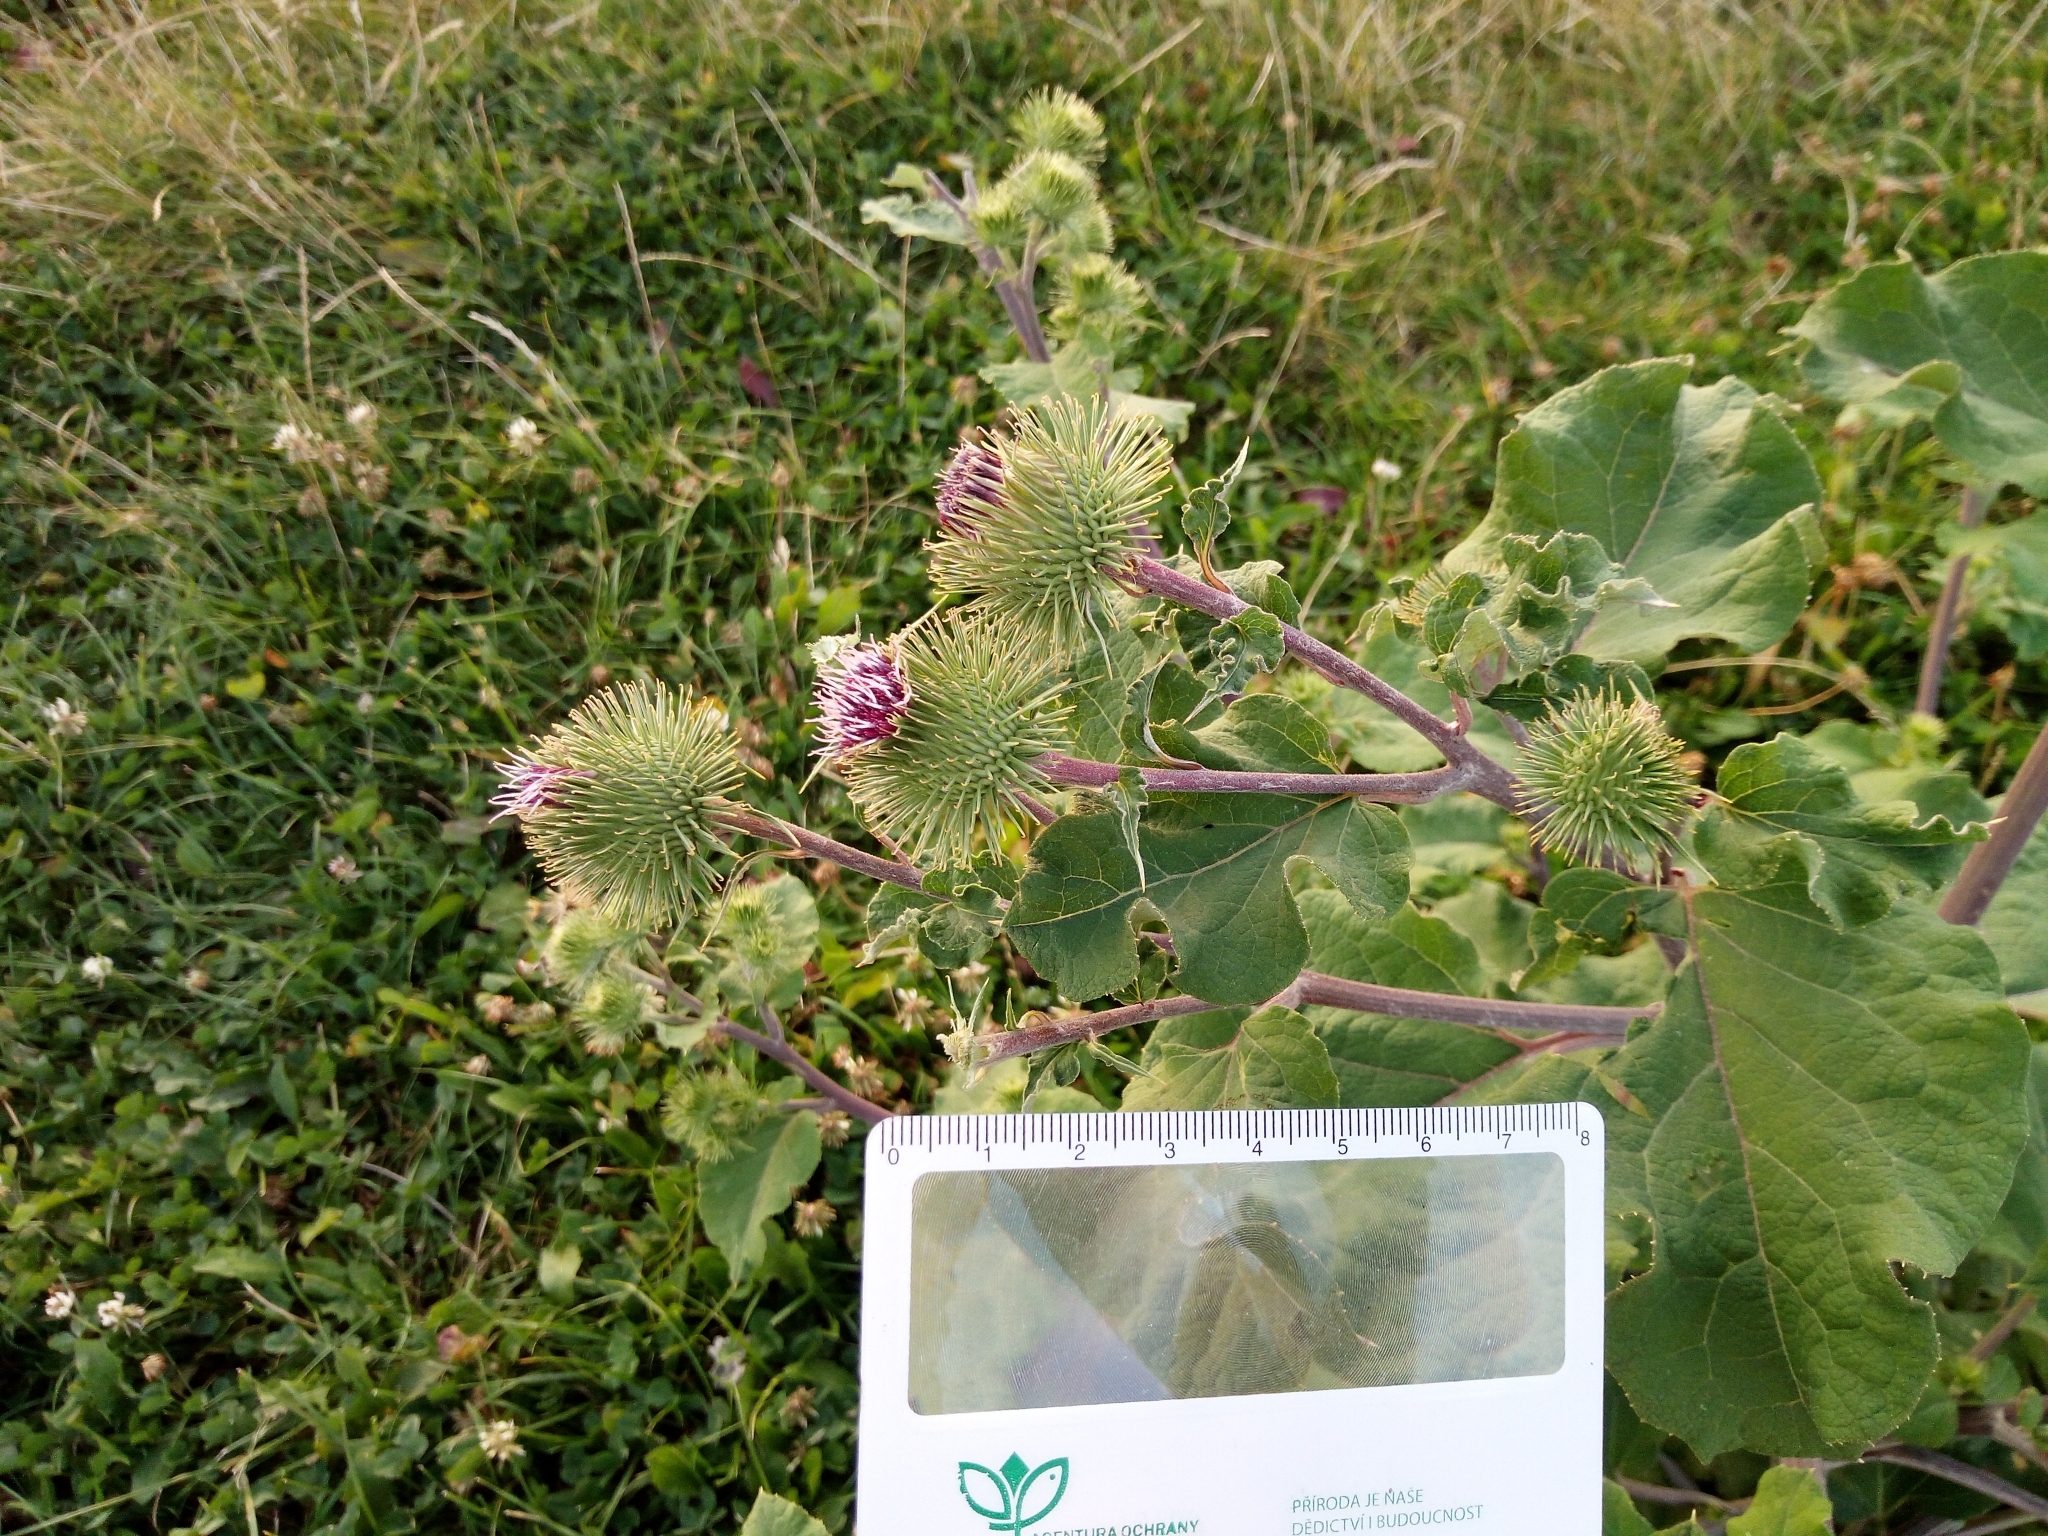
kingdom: Plantae
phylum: Tracheophyta
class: Magnoliopsida
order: Asterales
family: Asteraceae
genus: Arctium
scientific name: Arctium lappa
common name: Greater burdock
